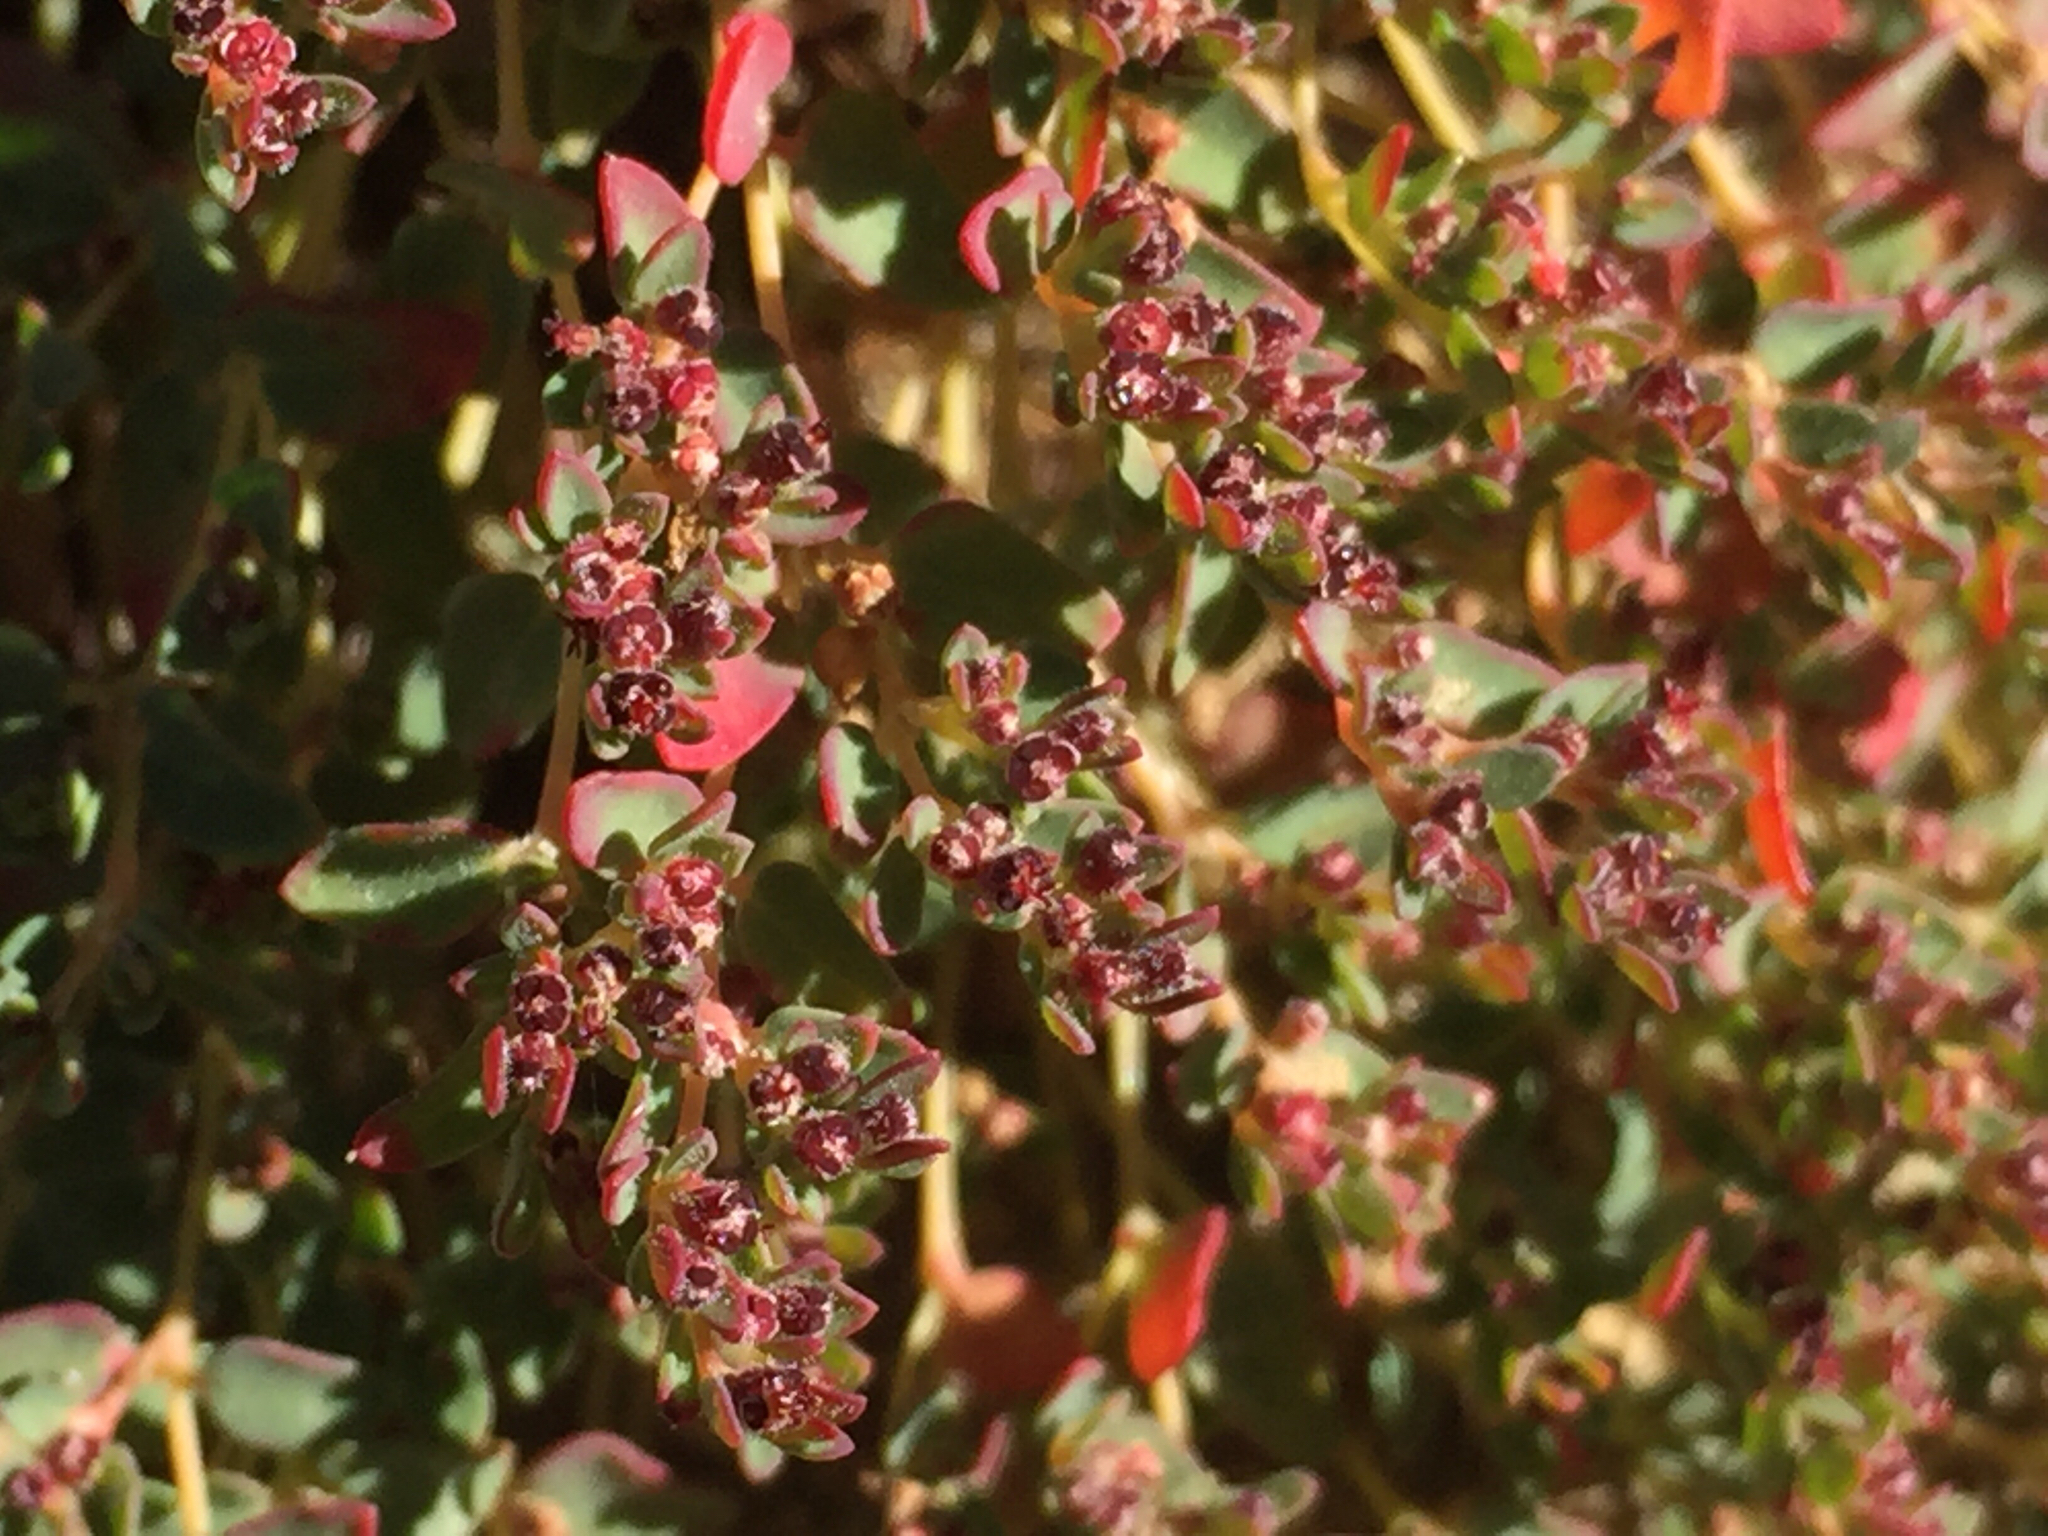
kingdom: Plantae
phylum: Tracheophyta
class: Magnoliopsida
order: Malpighiales
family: Euphorbiaceae
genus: Euphorbia
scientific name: Euphorbia polycarpa
